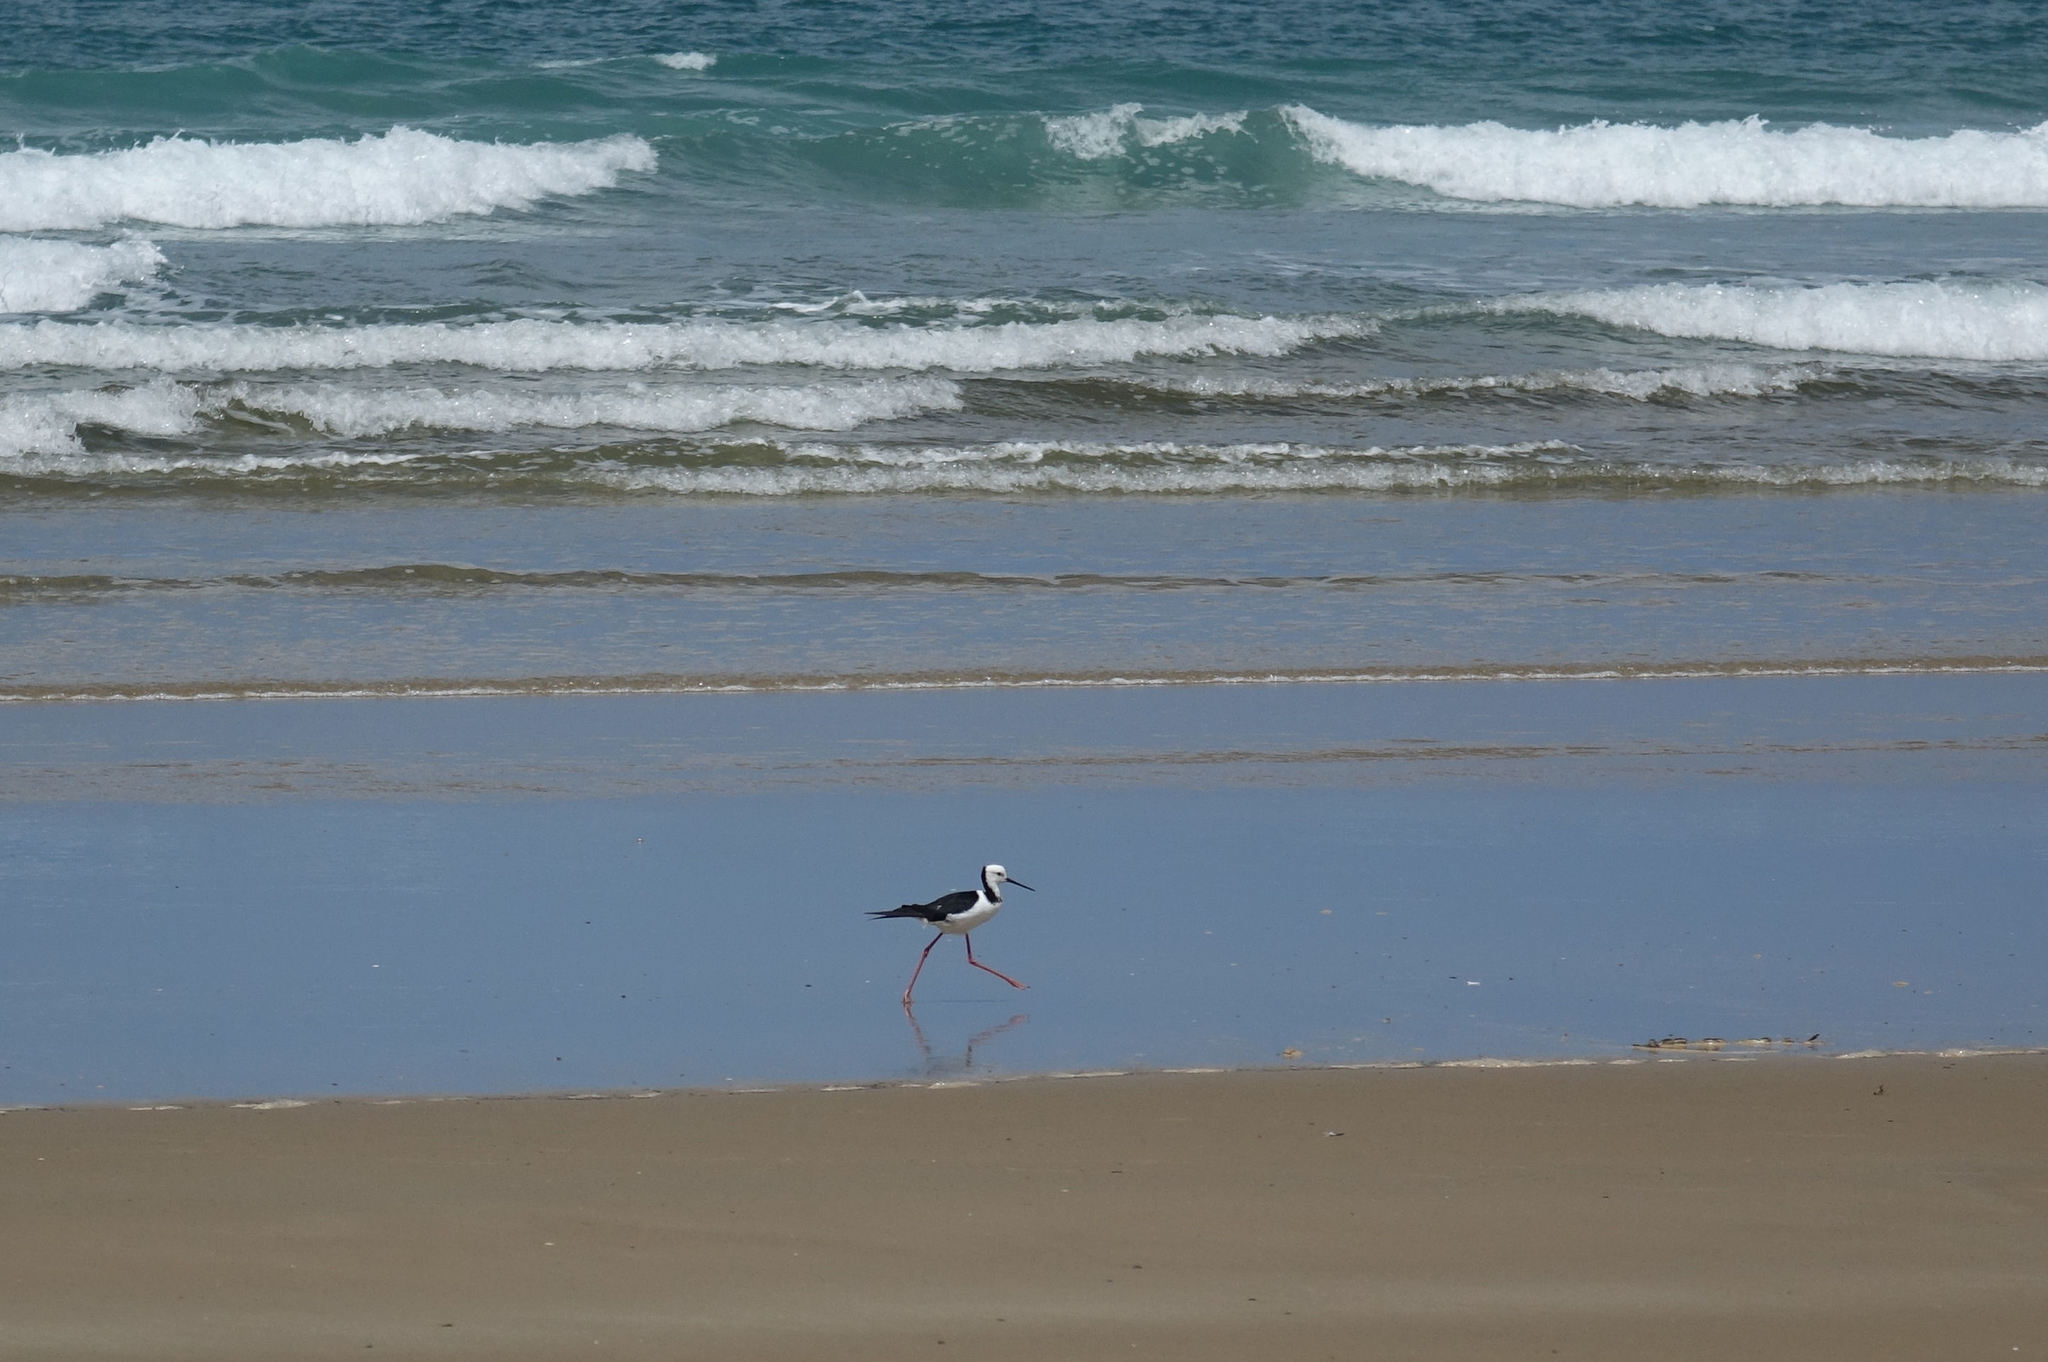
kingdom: Animalia
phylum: Chordata
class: Aves
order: Charadriiformes
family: Recurvirostridae
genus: Himantopus
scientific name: Himantopus leucocephalus
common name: White-headed stilt
